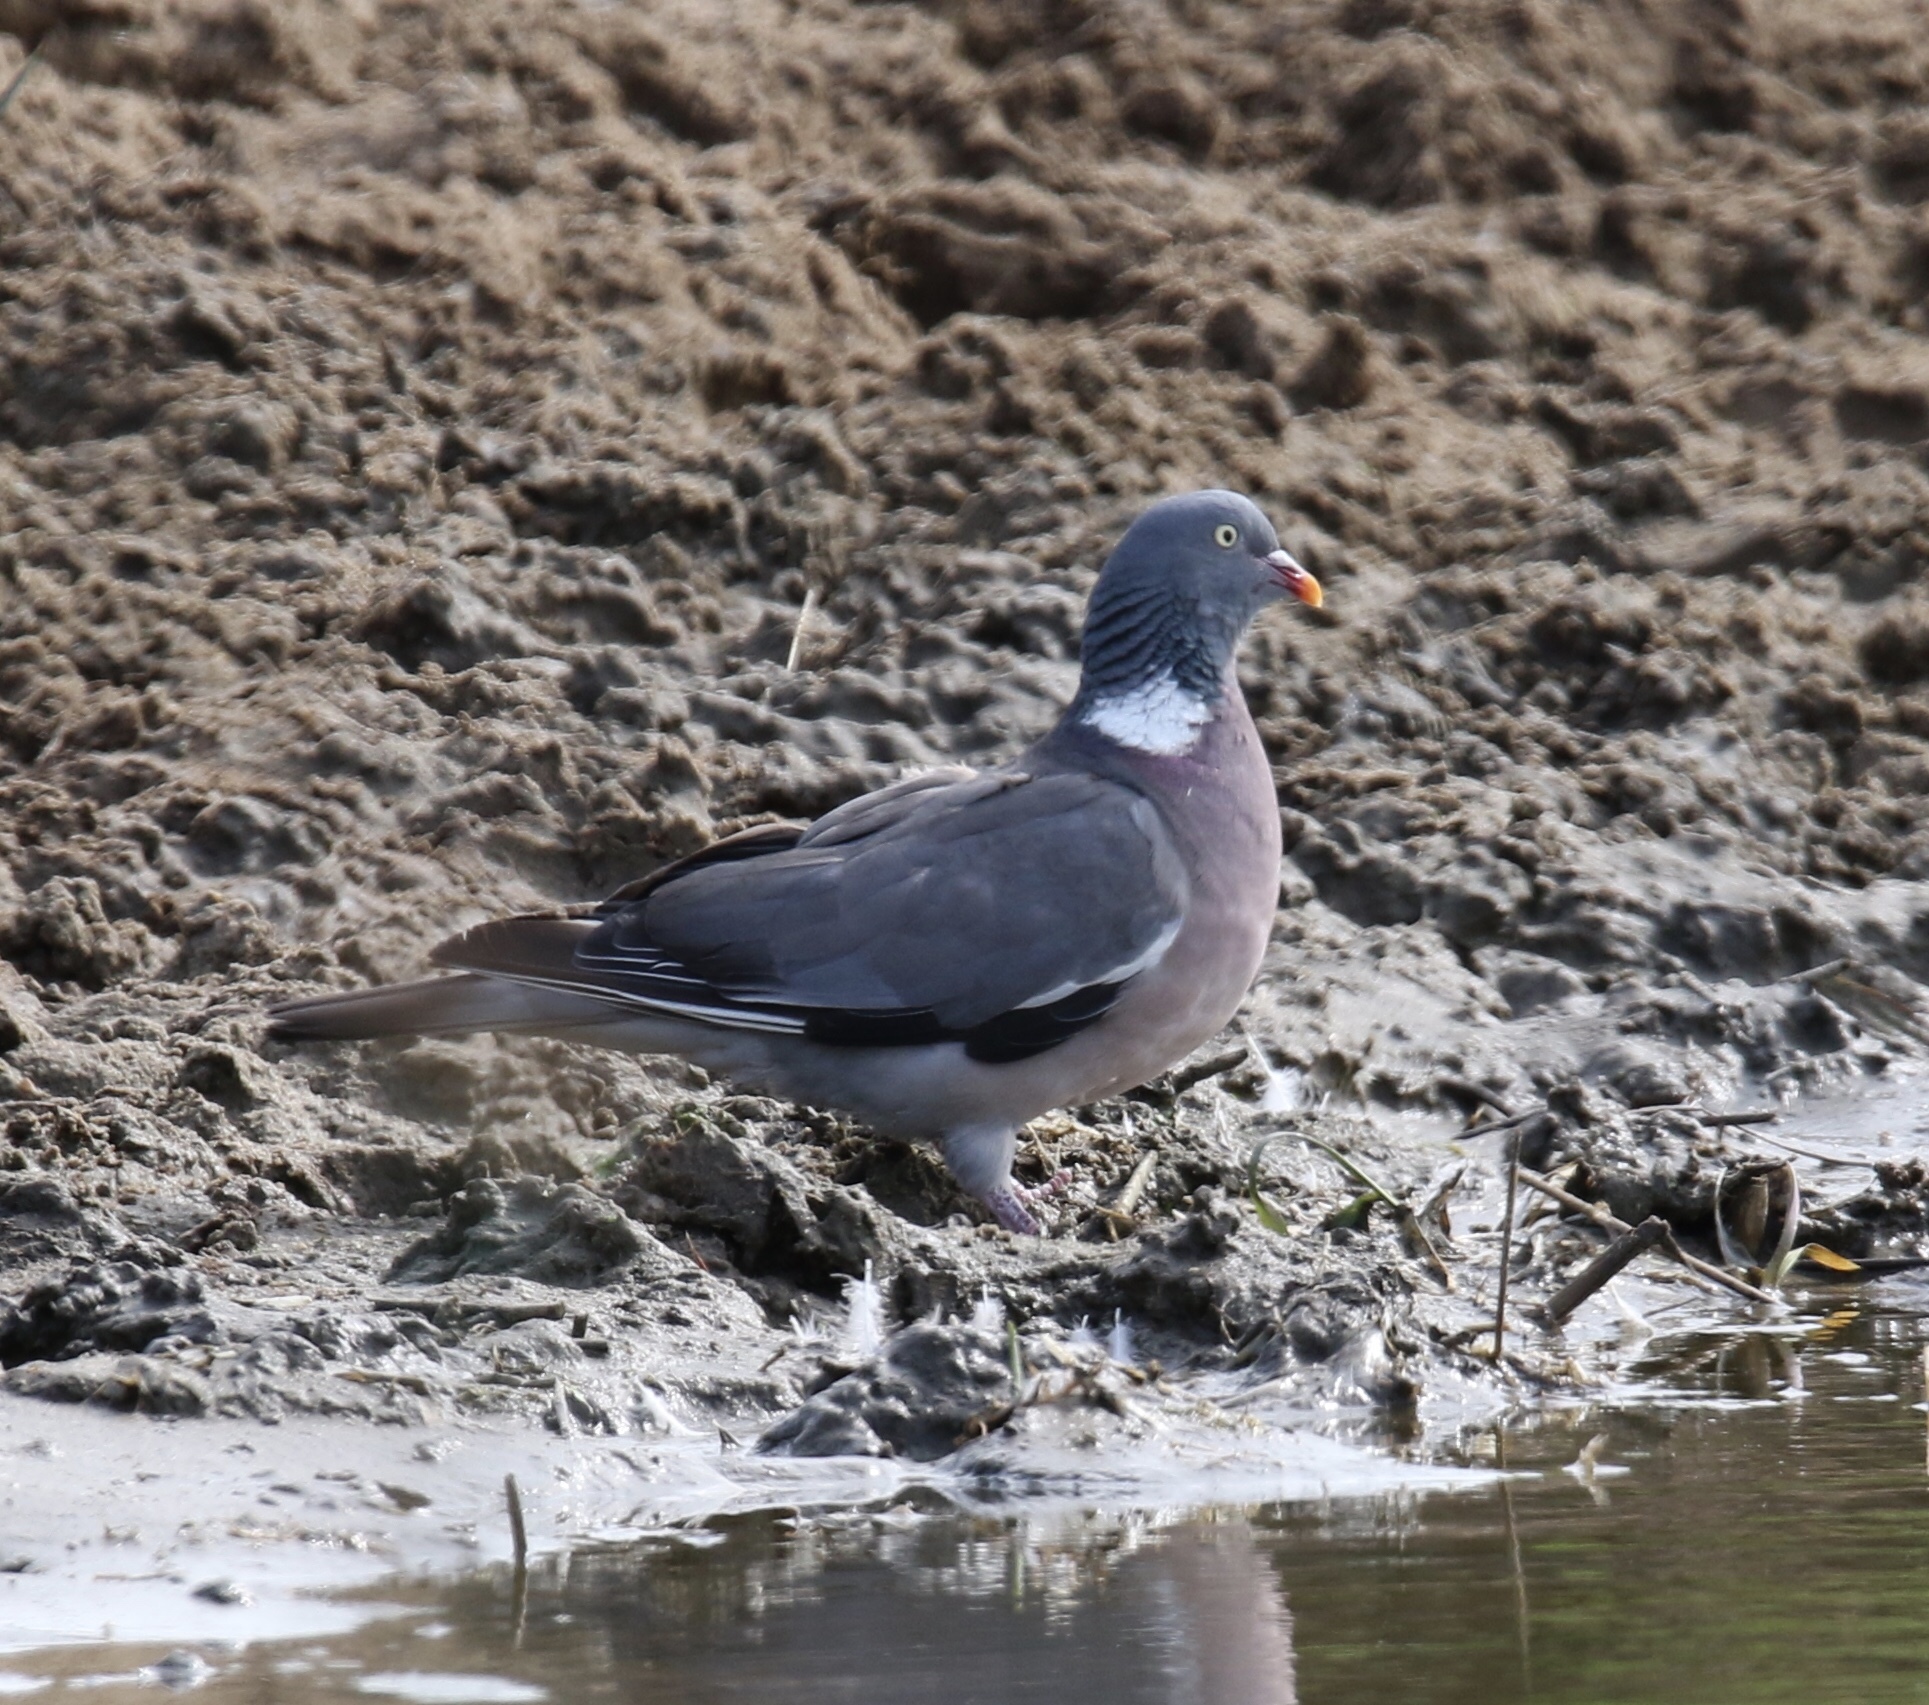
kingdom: Animalia
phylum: Chordata
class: Aves
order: Columbiformes
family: Columbidae
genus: Columba
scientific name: Columba palumbus
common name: Common wood pigeon
